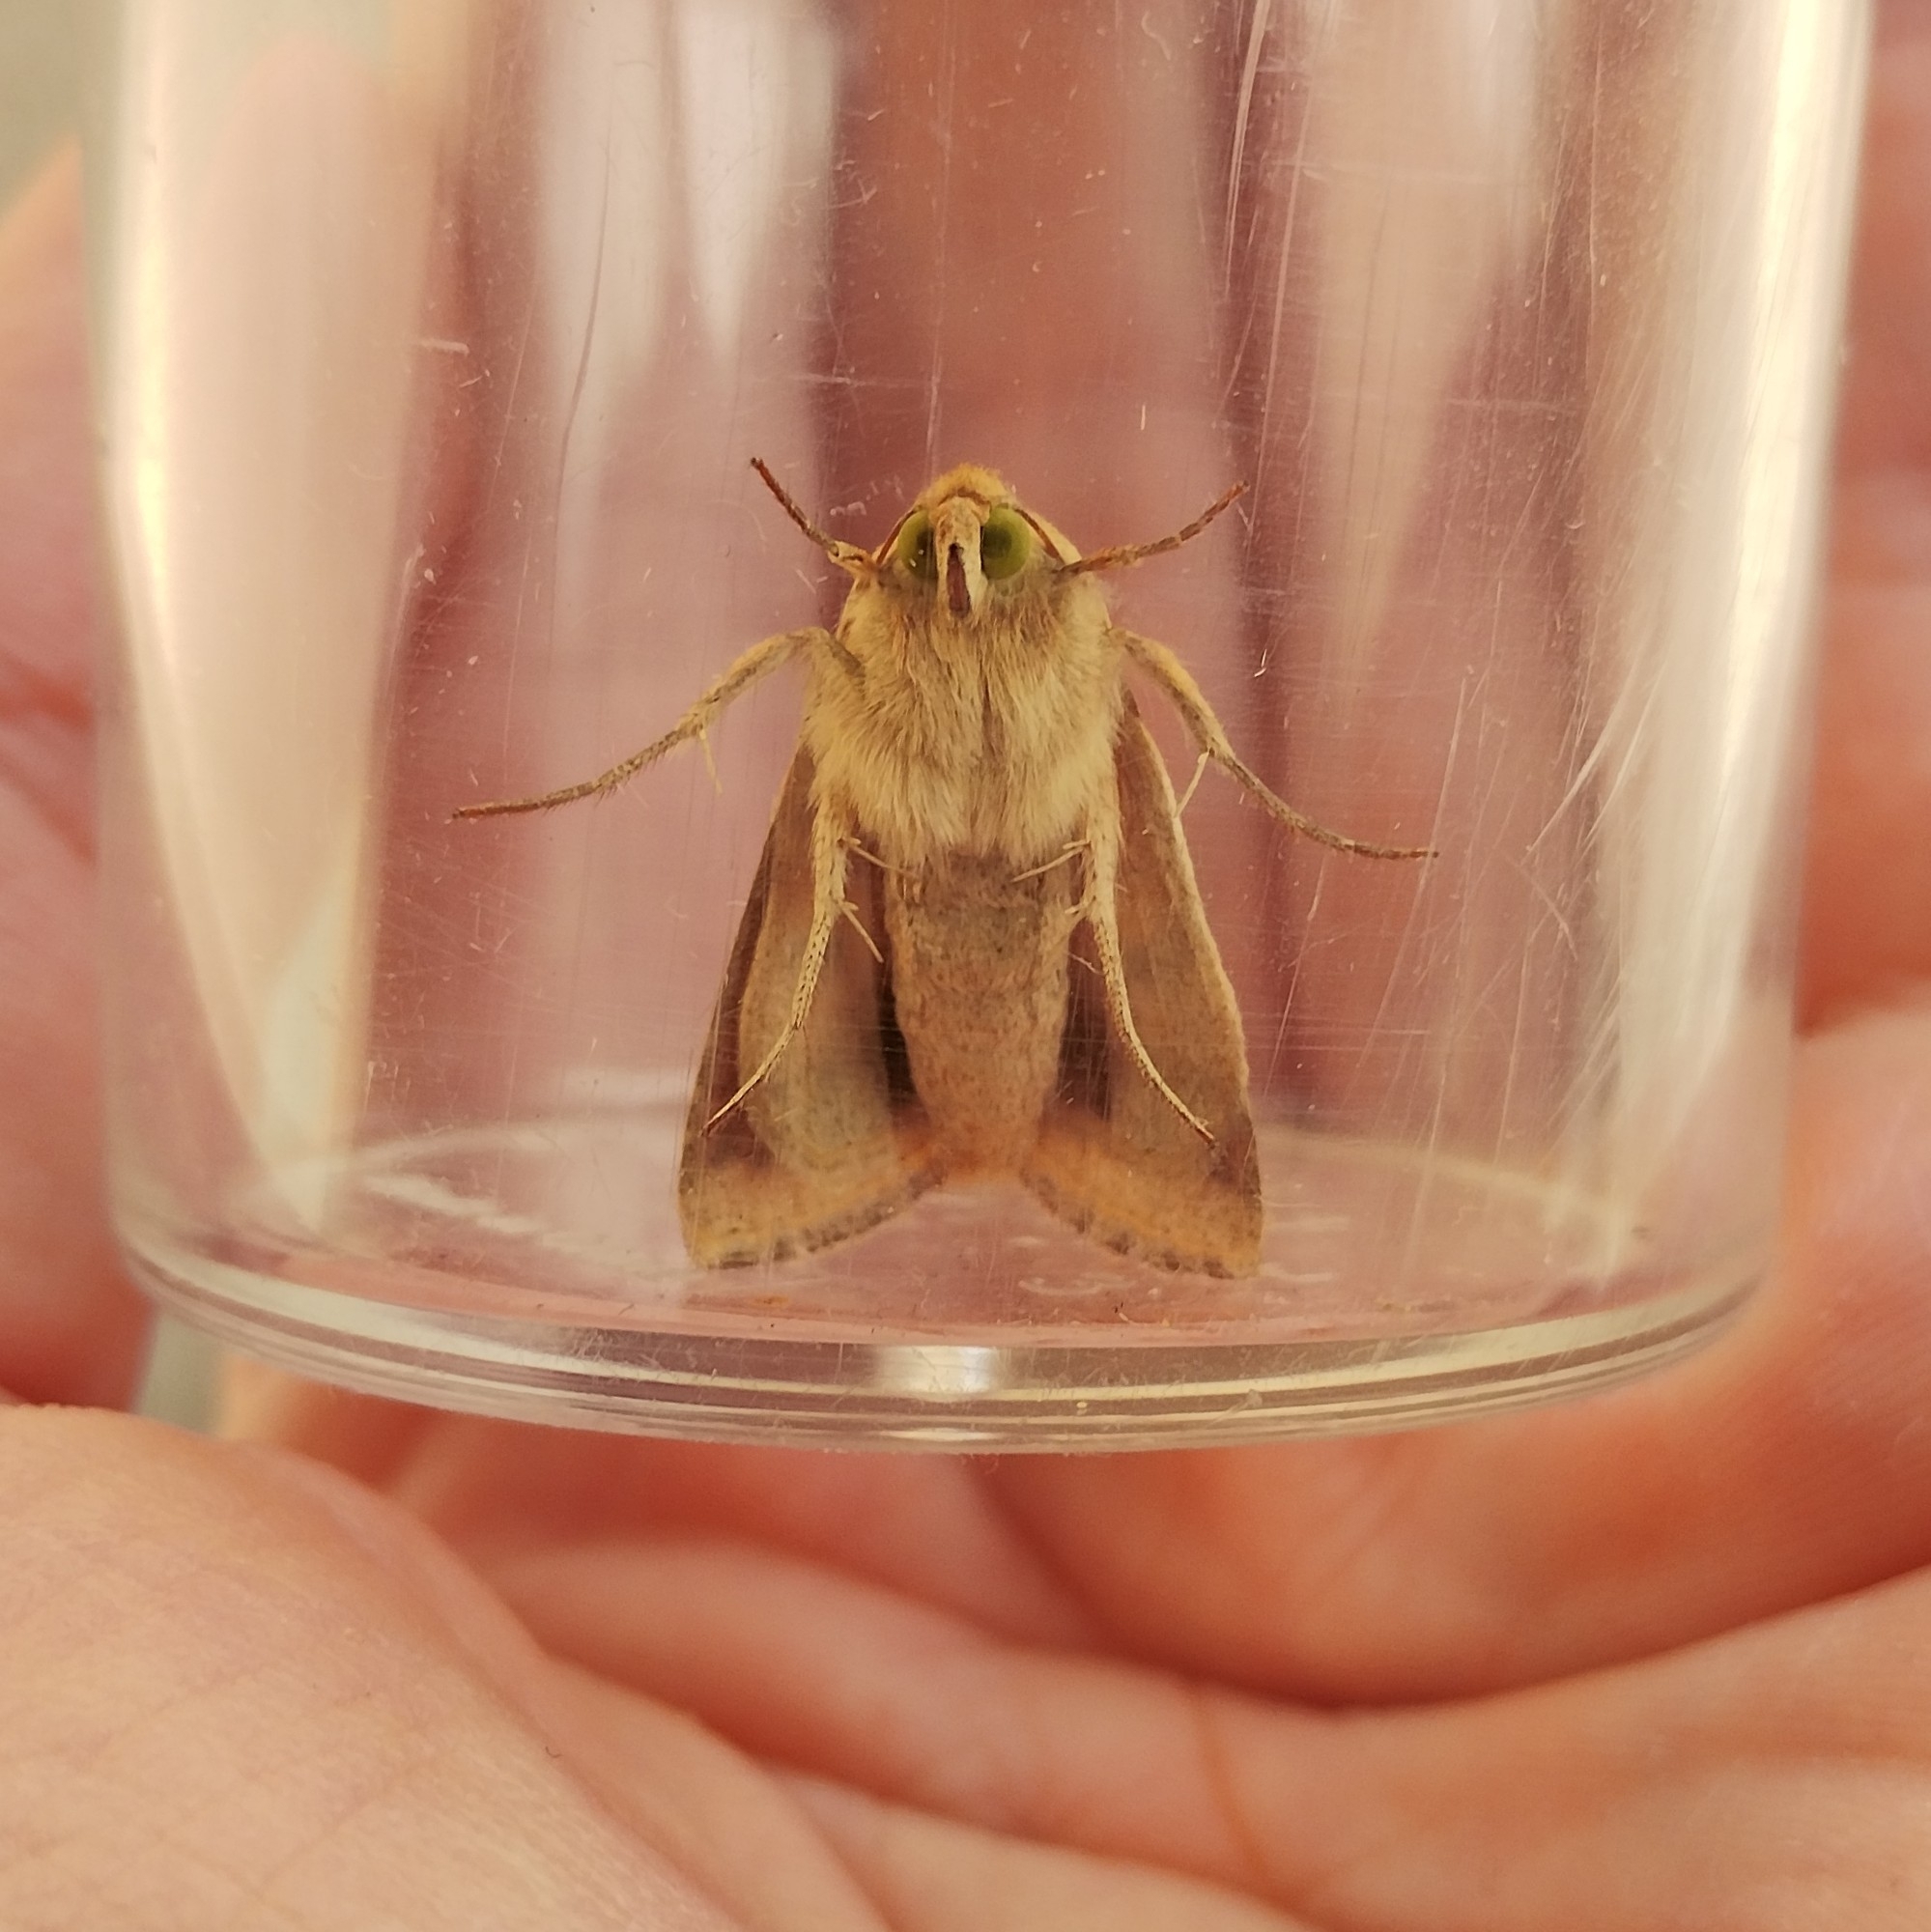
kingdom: Animalia
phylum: Arthropoda
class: Insecta
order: Lepidoptera
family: Noctuidae
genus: Helicoverpa
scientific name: Helicoverpa armigera
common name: Cotton bollworm
